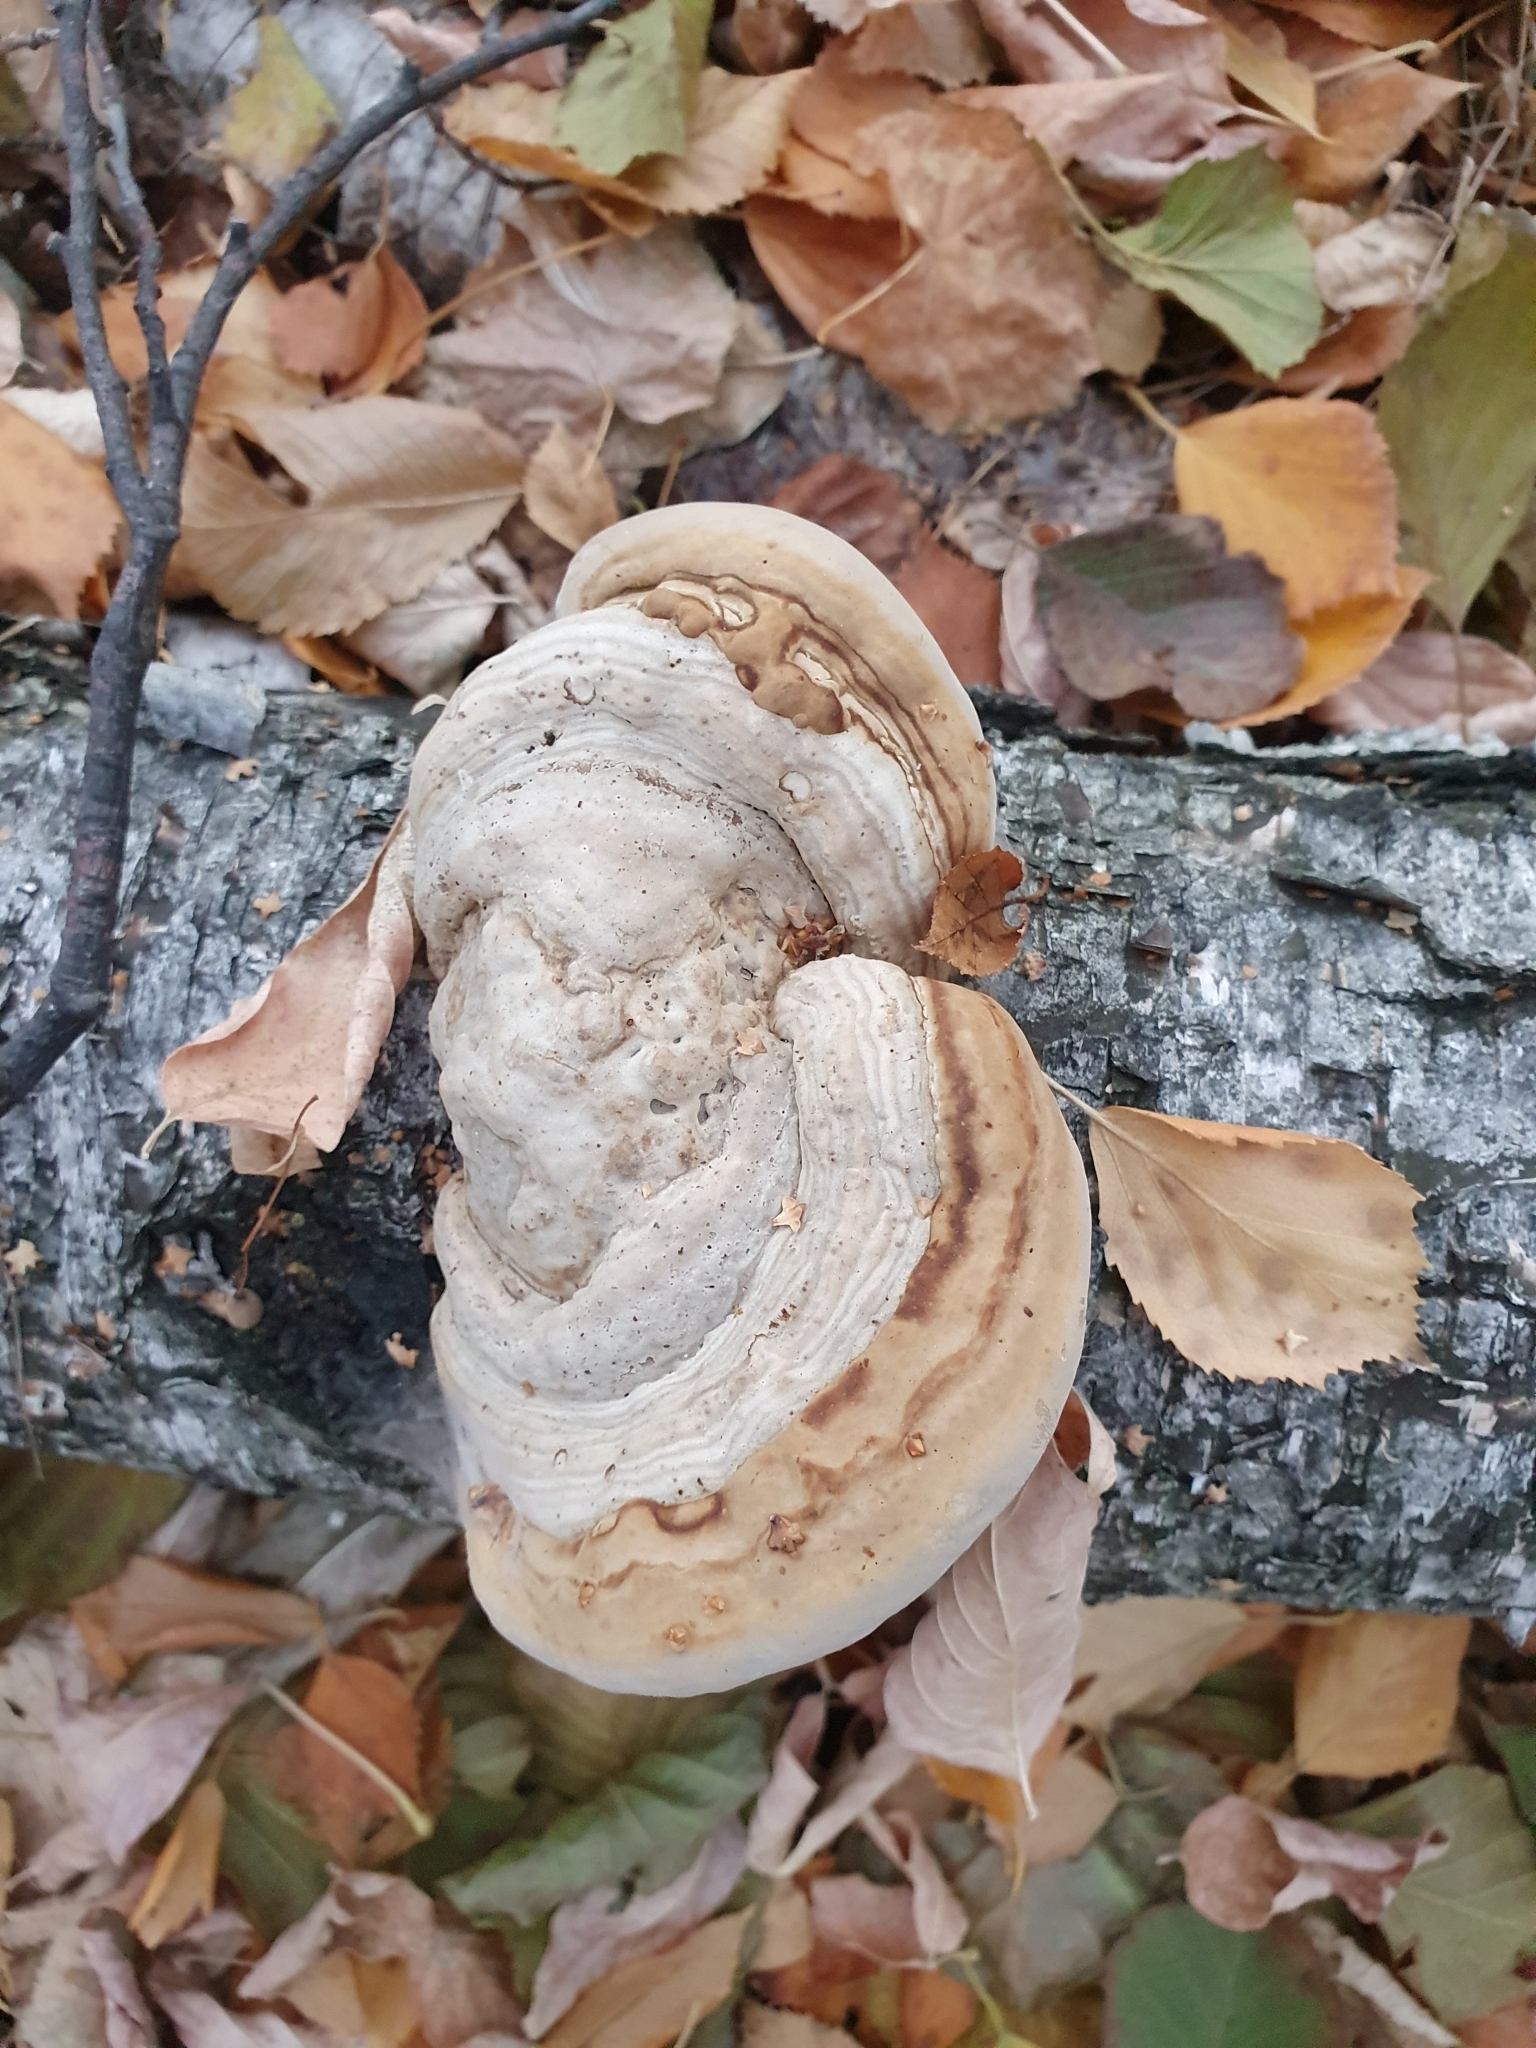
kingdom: Fungi
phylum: Basidiomycota
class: Agaricomycetes
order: Polyporales
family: Polyporaceae
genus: Fomes
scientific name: Fomes fomentarius
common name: Hoof fungus
